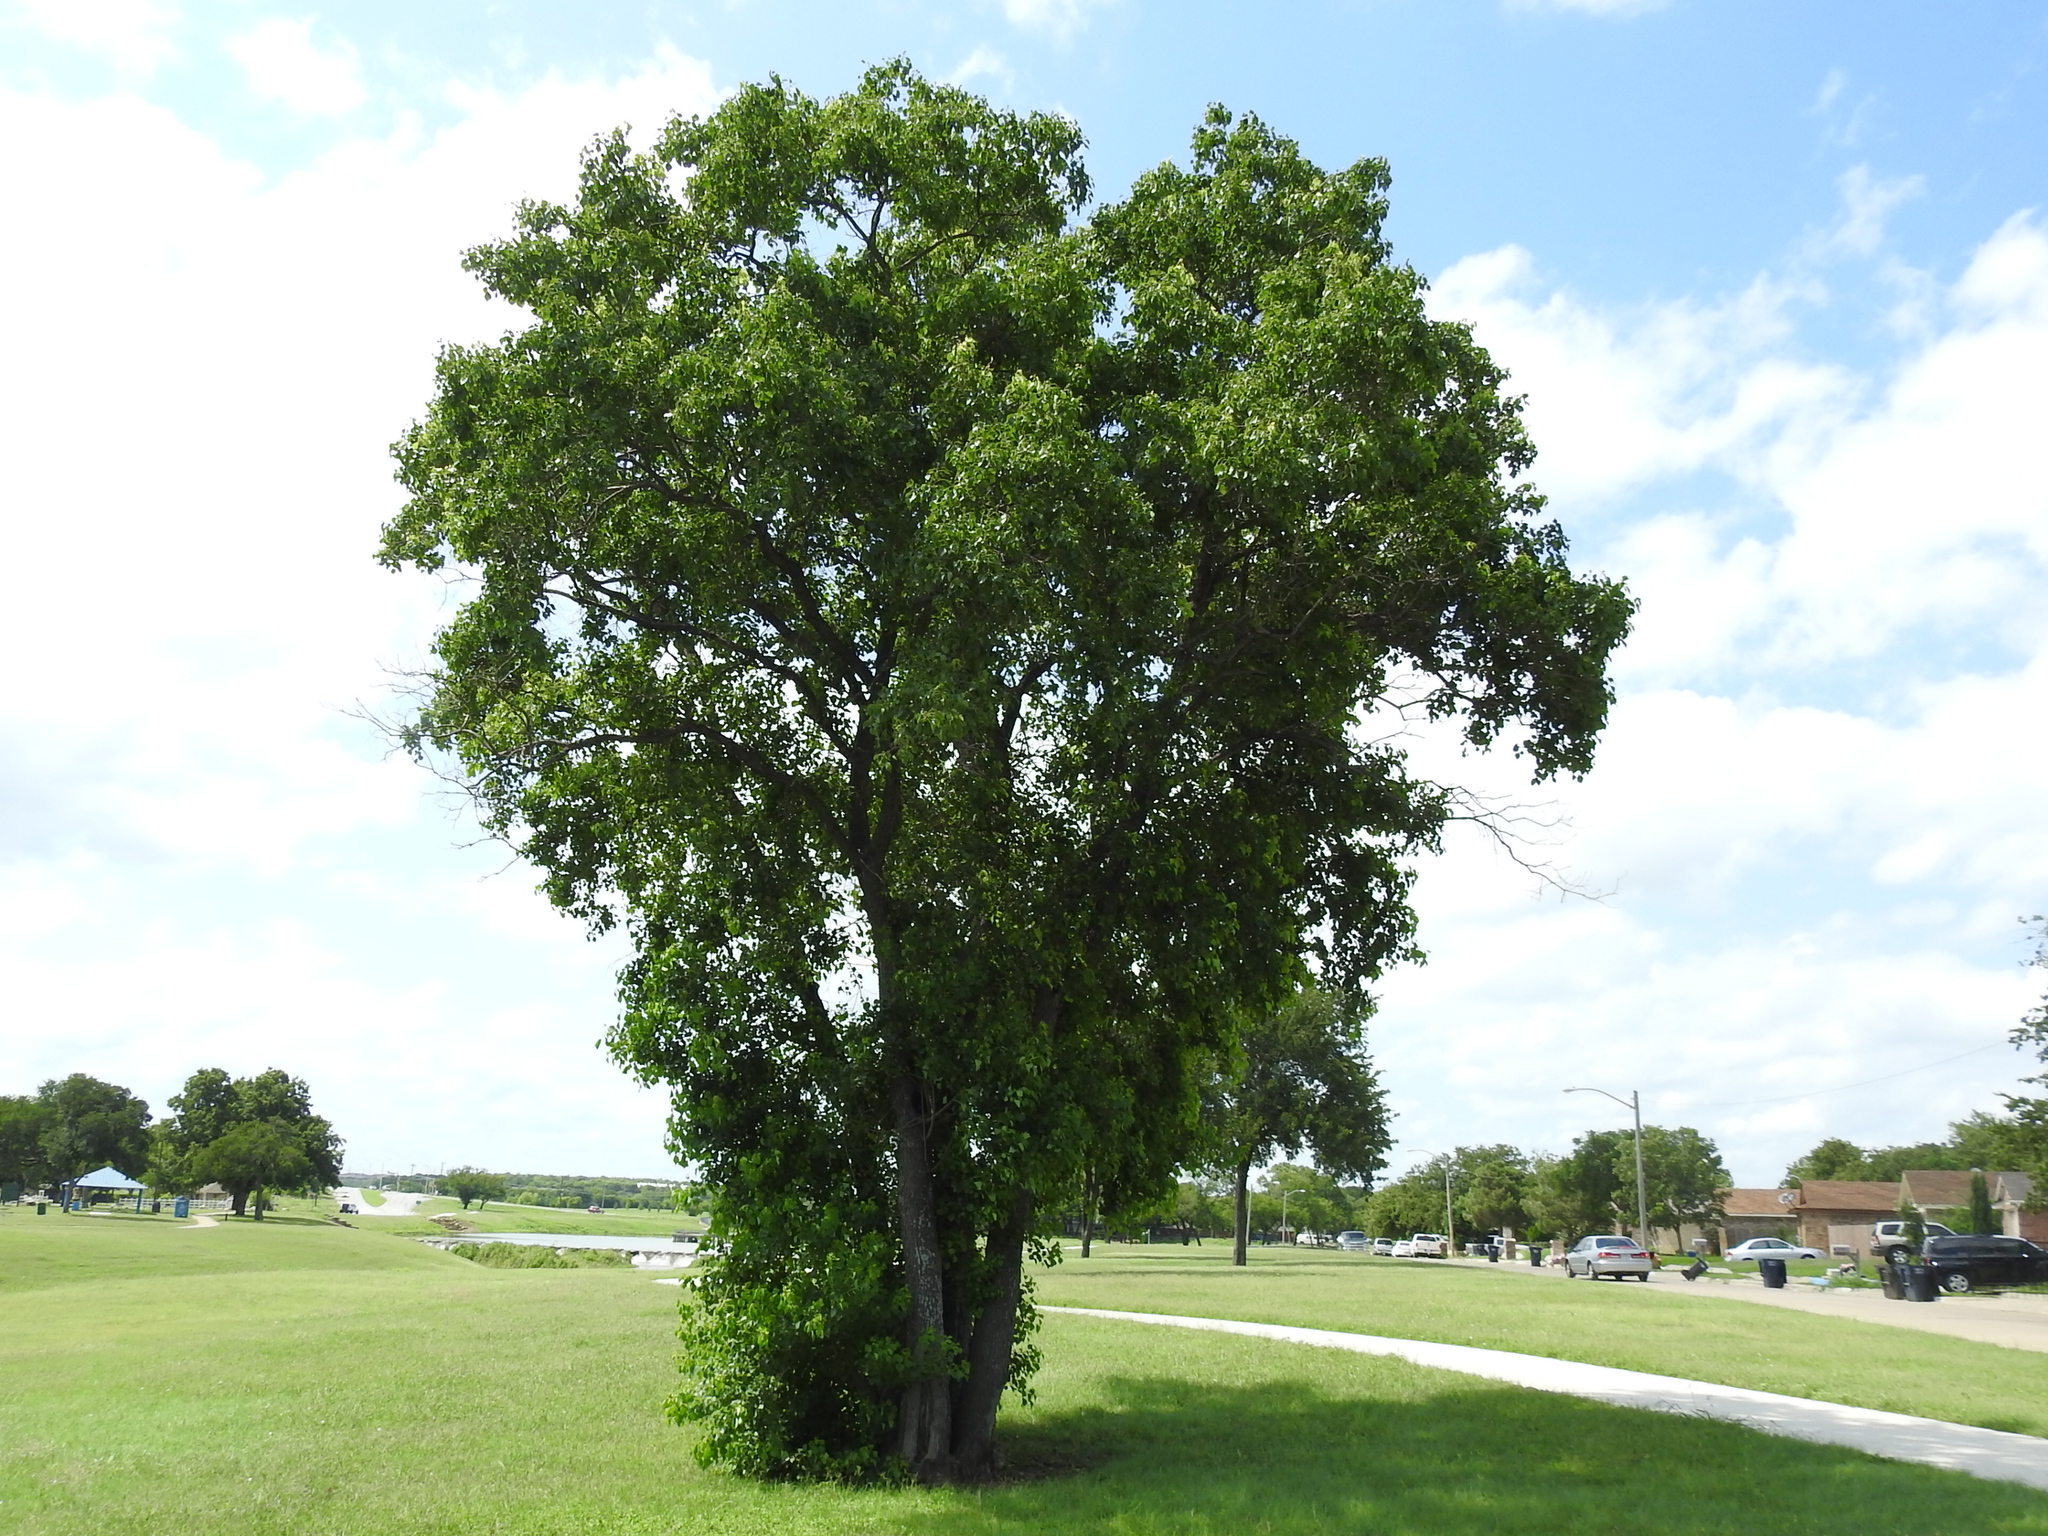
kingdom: Plantae
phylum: Tracheophyta
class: Magnoliopsida
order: Malpighiales
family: Euphorbiaceae
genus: Triadica
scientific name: Triadica sebifera
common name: Chinese tallow
